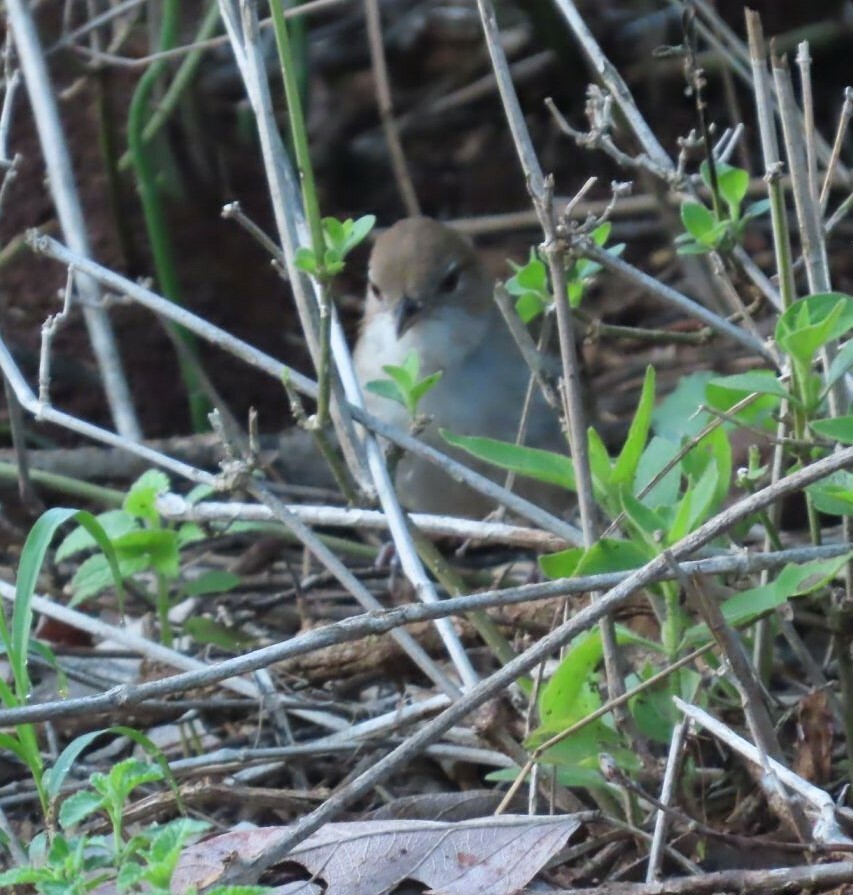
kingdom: Animalia
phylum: Chordata
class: Aves
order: Passeriformes
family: Pycnonotidae
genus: Phyllastrephus
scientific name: Phyllastrephus terrestris
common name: Terrestrial brownbul
